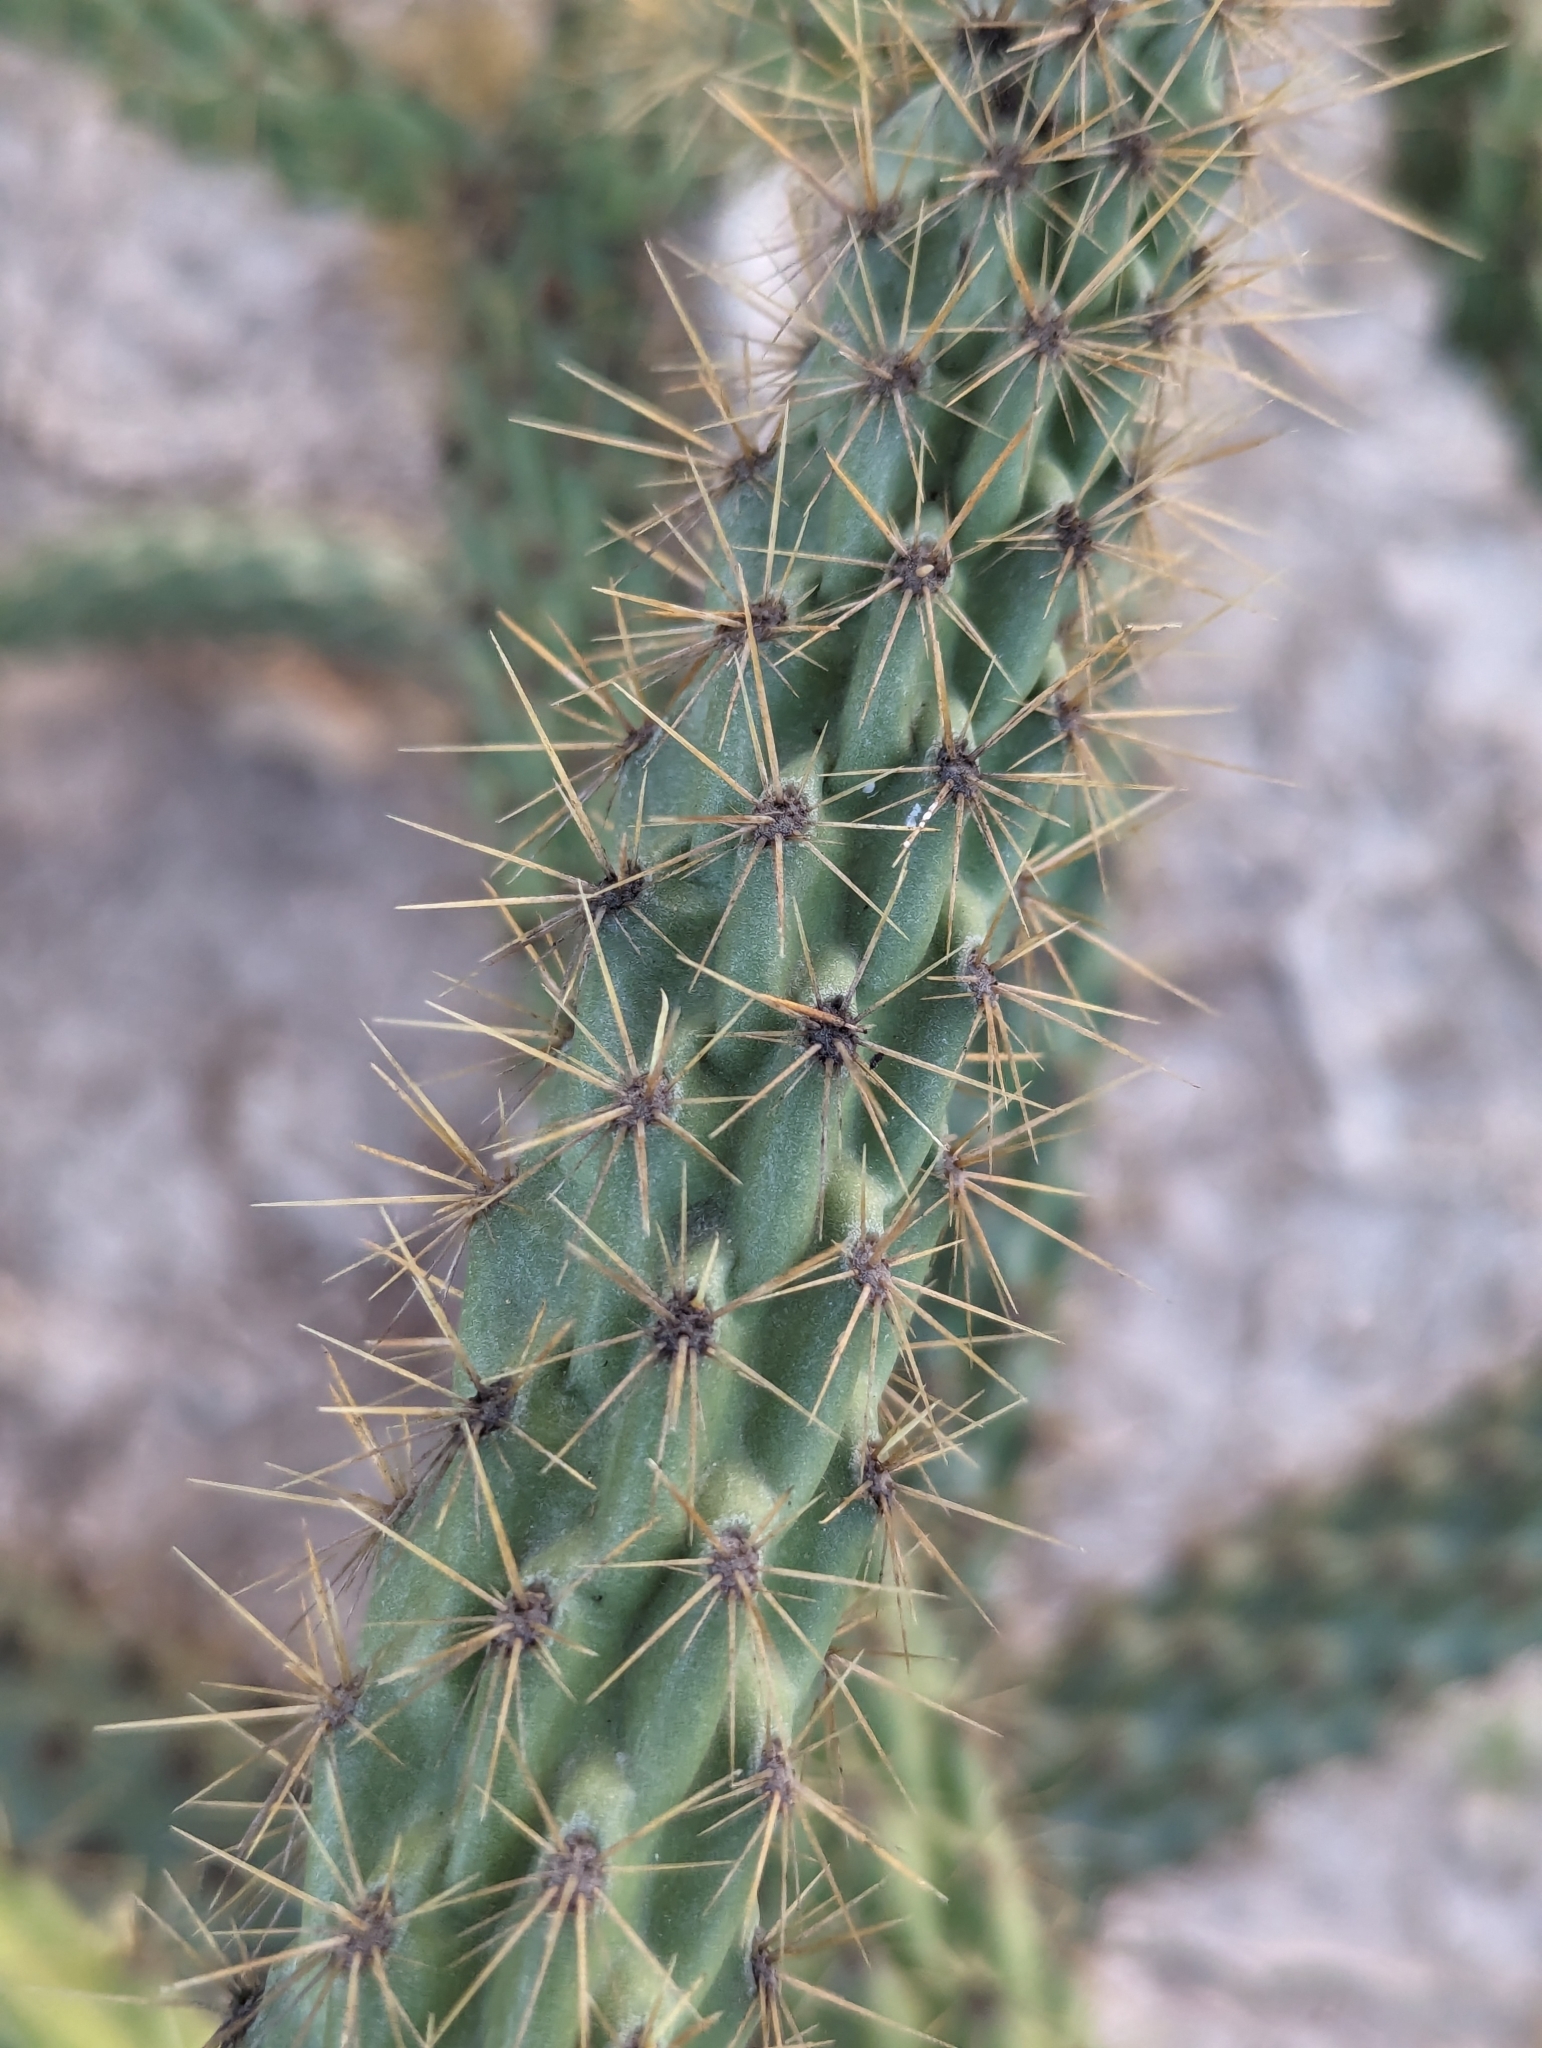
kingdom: Plantae
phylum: Tracheophyta
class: Magnoliopsida
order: Caryophyllales
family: Cactaceae
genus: Cylindropuntia
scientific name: Cylindropuntia alcahes
